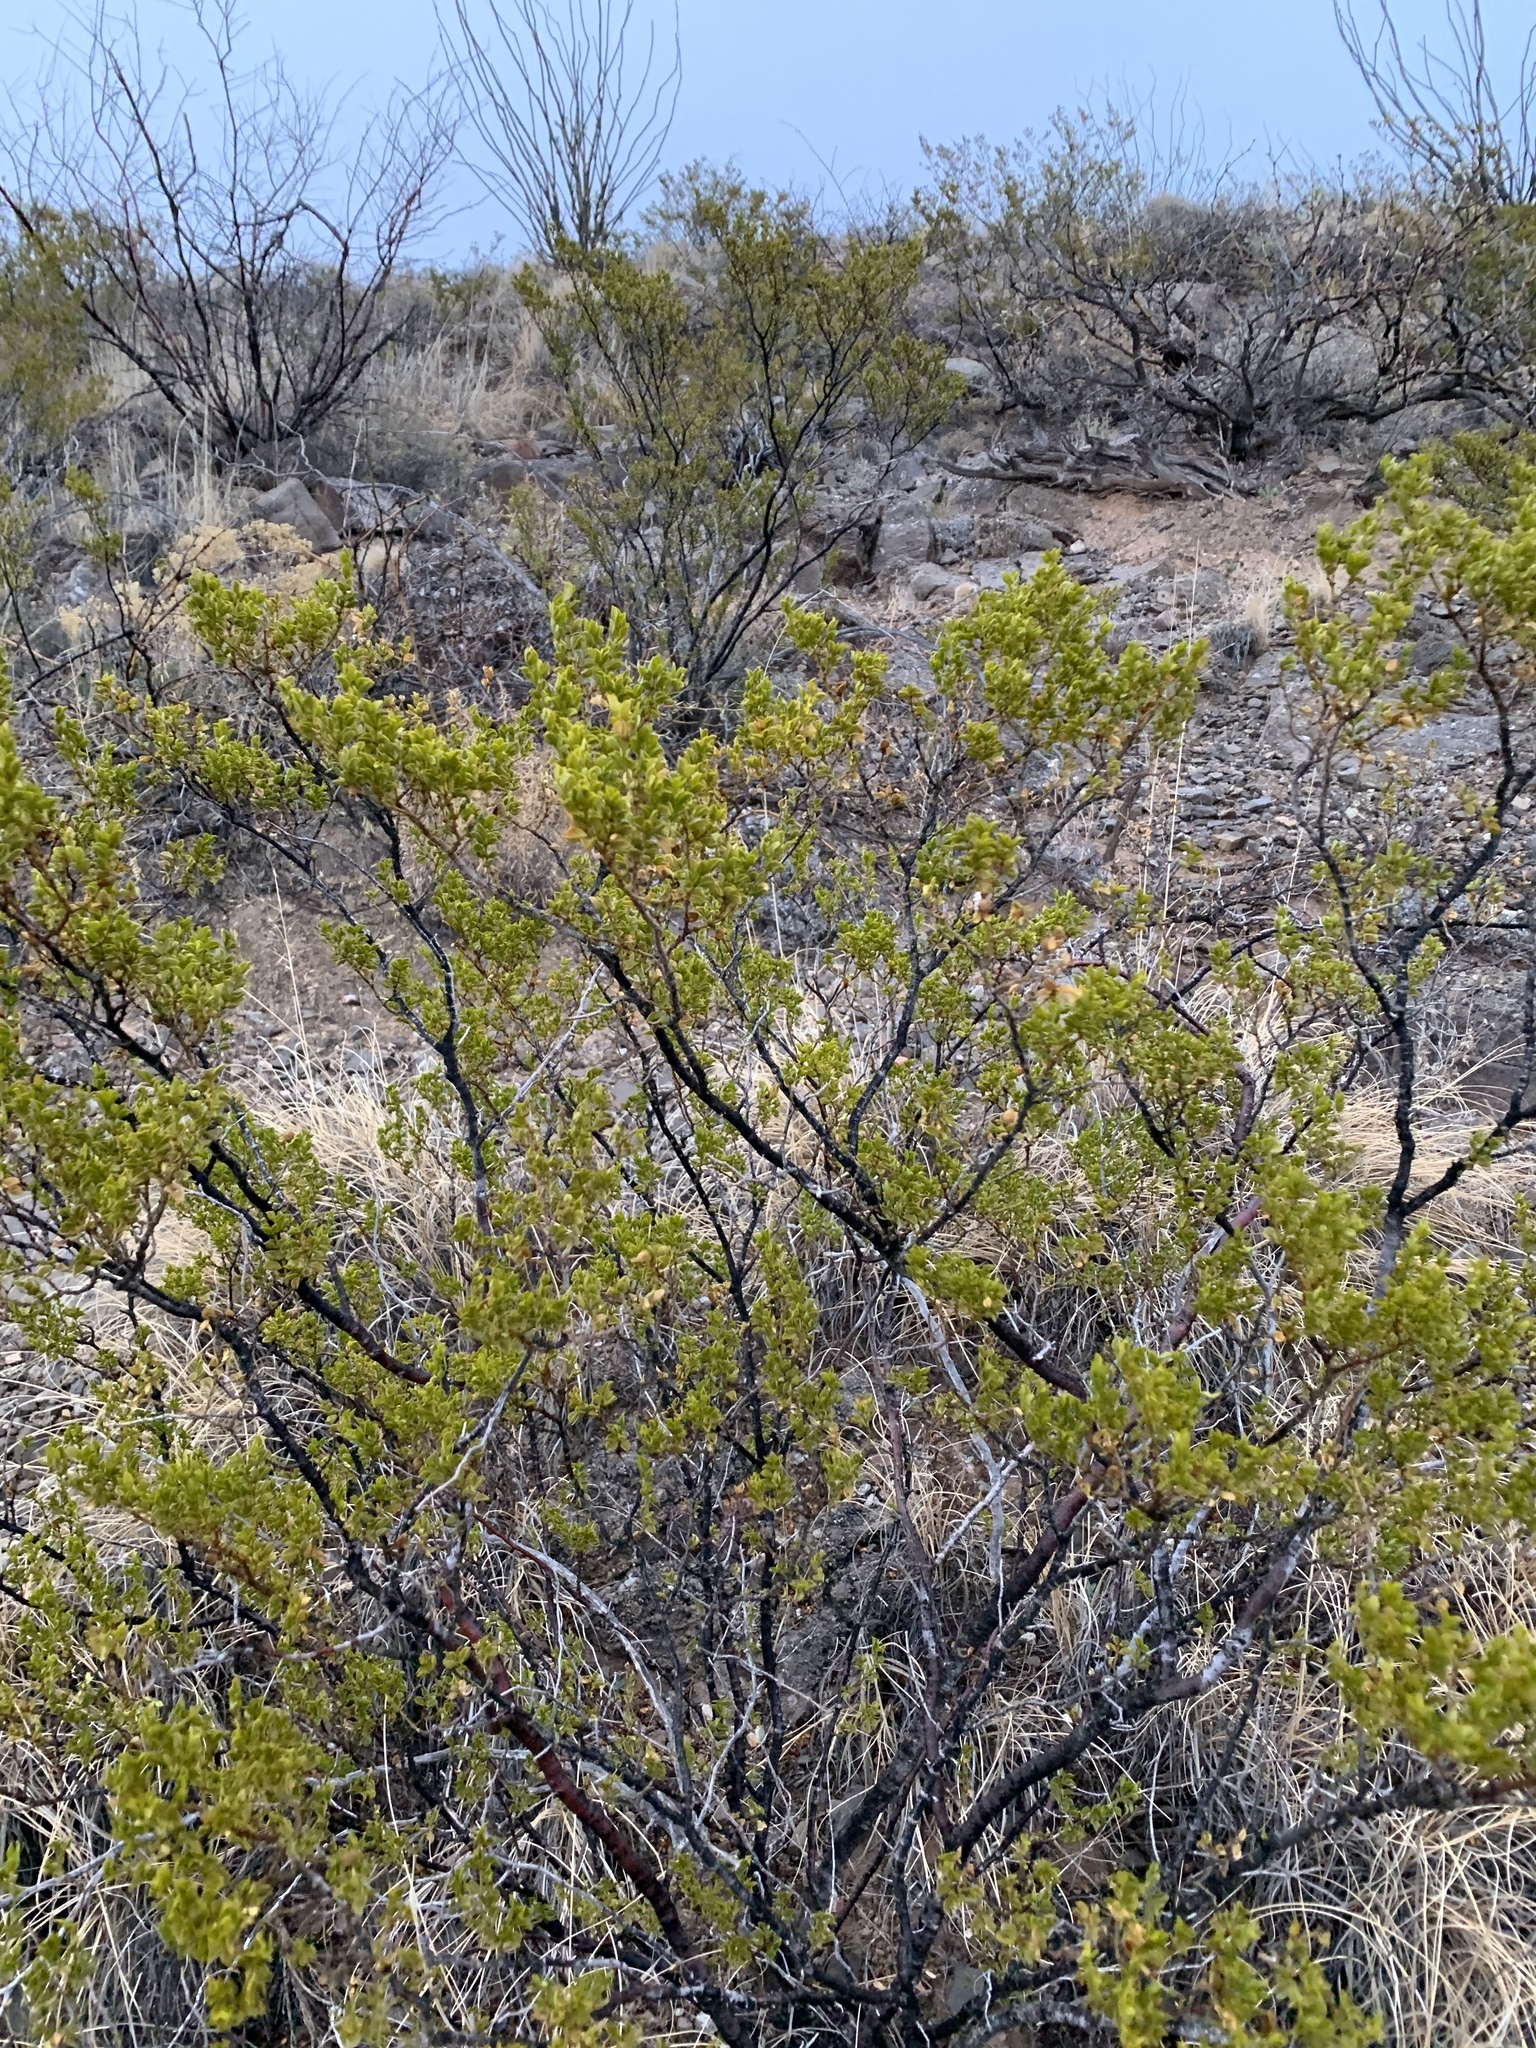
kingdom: Plantae
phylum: Tracheophyta
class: Magnoliopsida
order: Zygophyllales
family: Zygophyllaceae
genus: Larrea
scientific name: Larrea tridentata
